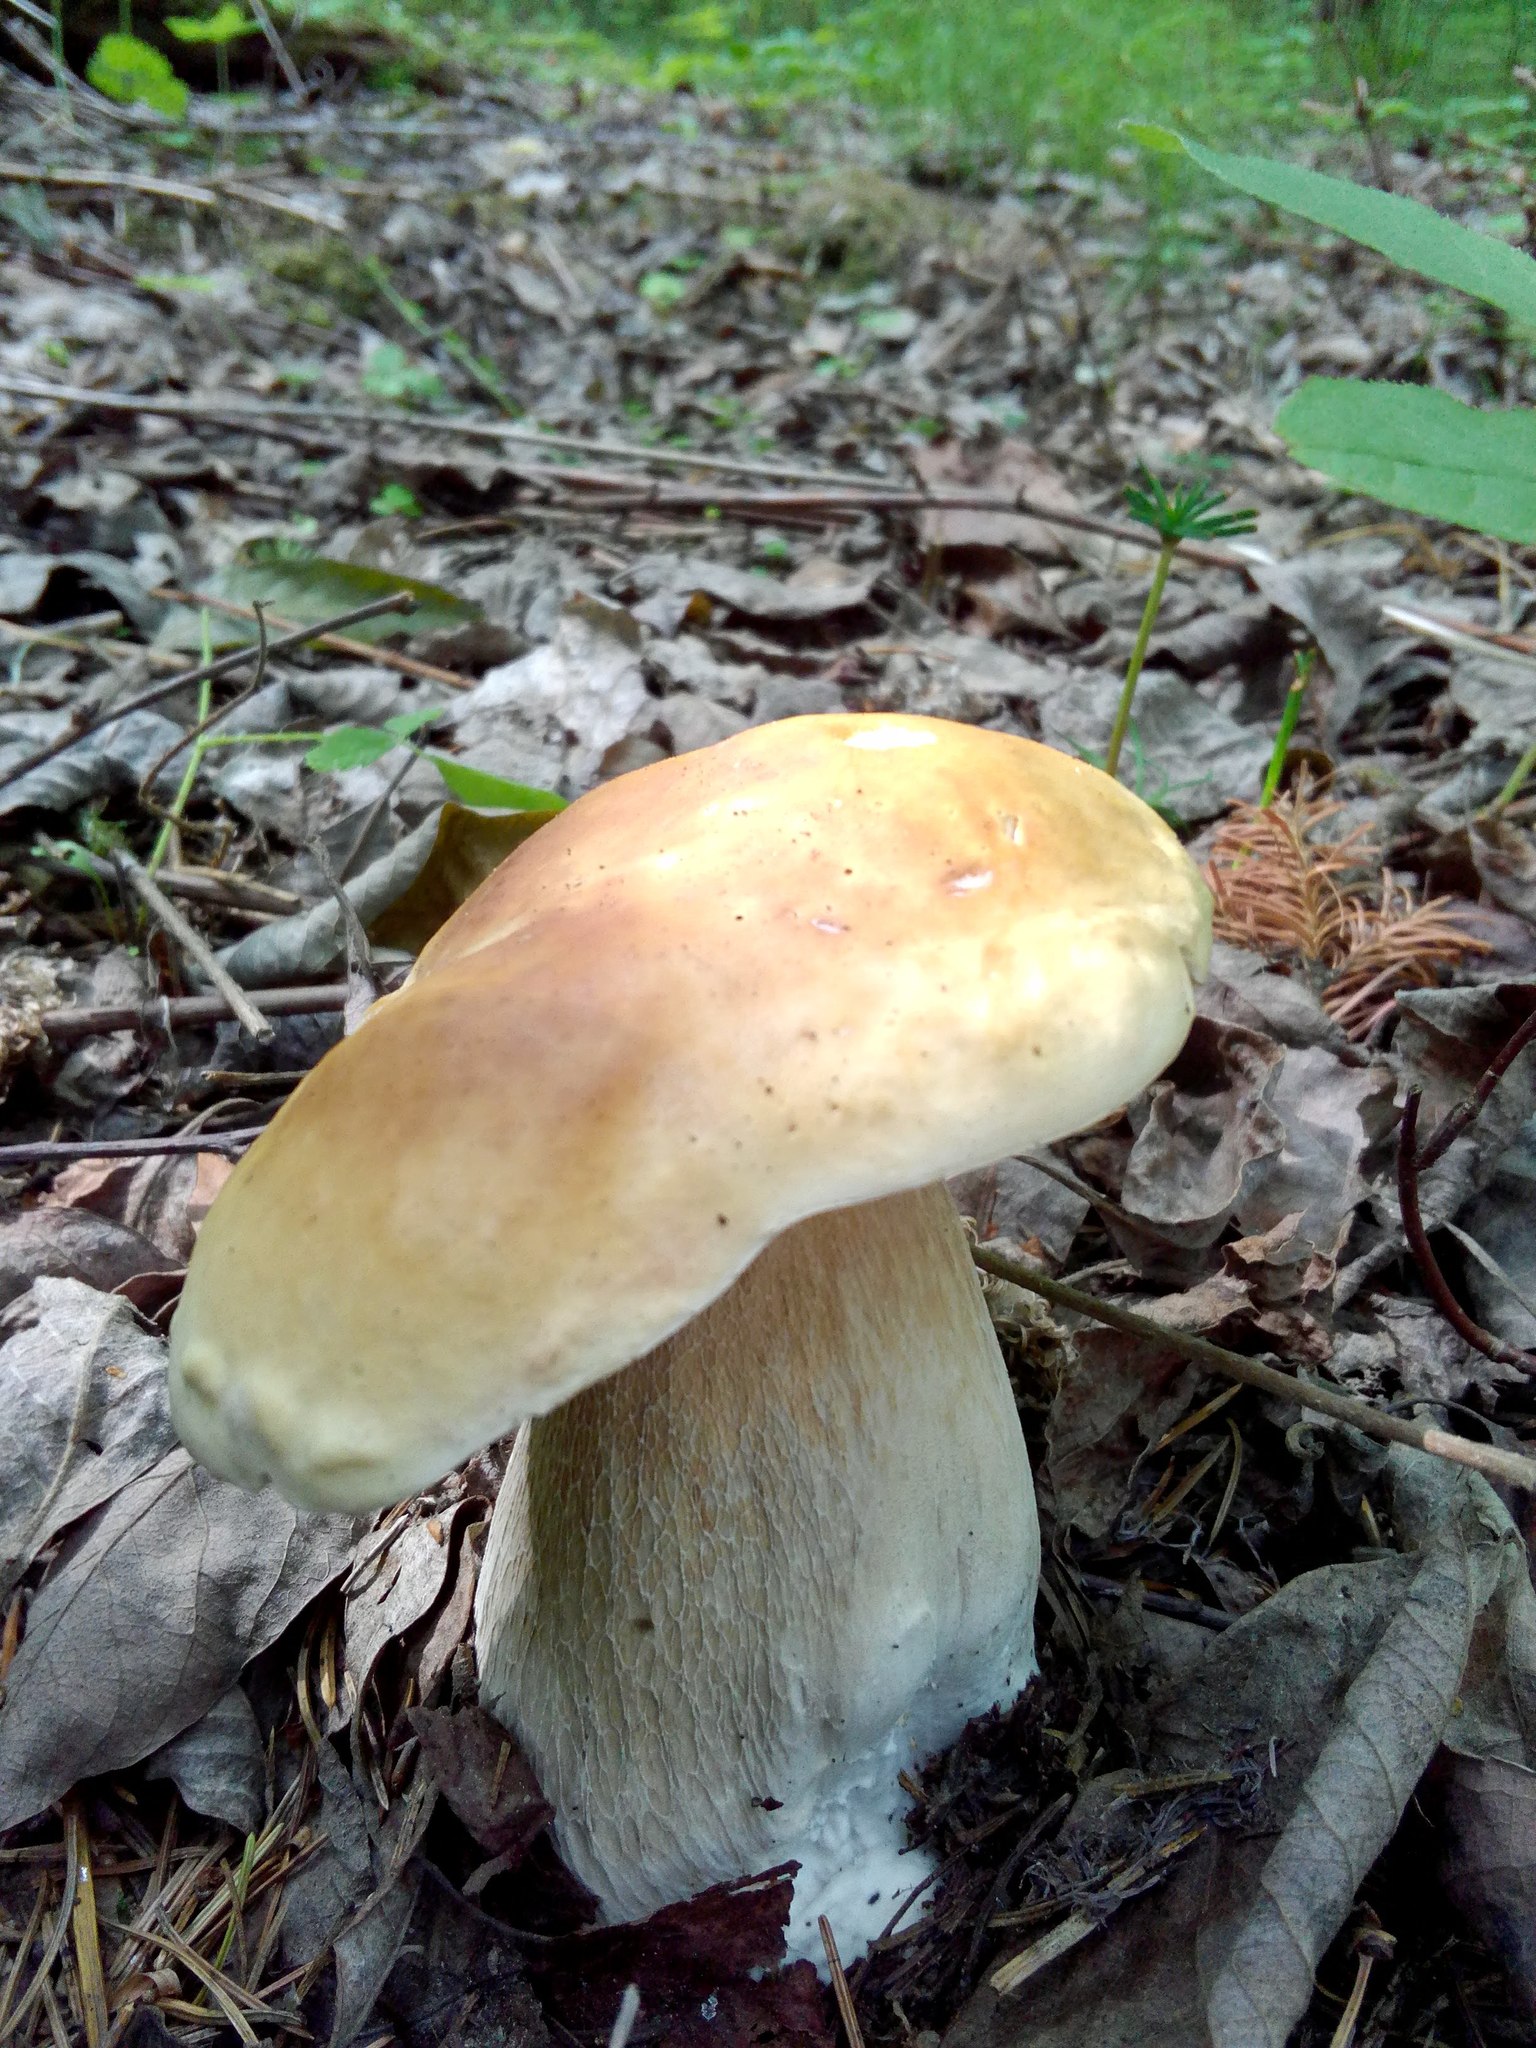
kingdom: Fungi
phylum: Basidiomycota
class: Agaricomycetes
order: Boletales
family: Boletaceae
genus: Boletus
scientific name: Boletus edulis
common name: Cep
